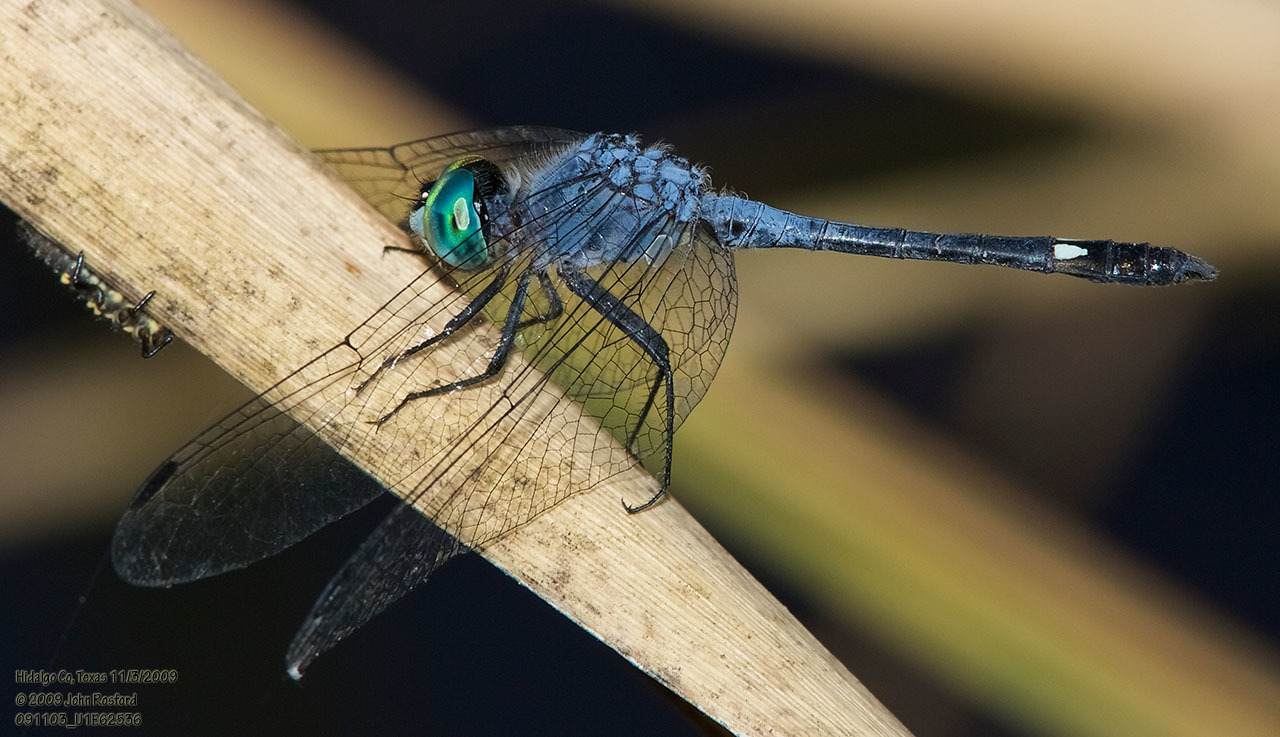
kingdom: Animalia
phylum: Arthropoda
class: Insecta
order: Odonata
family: Libellulidae
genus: Micrathyria
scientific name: Micrathyria aequalis
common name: Spot-tailed dasher
